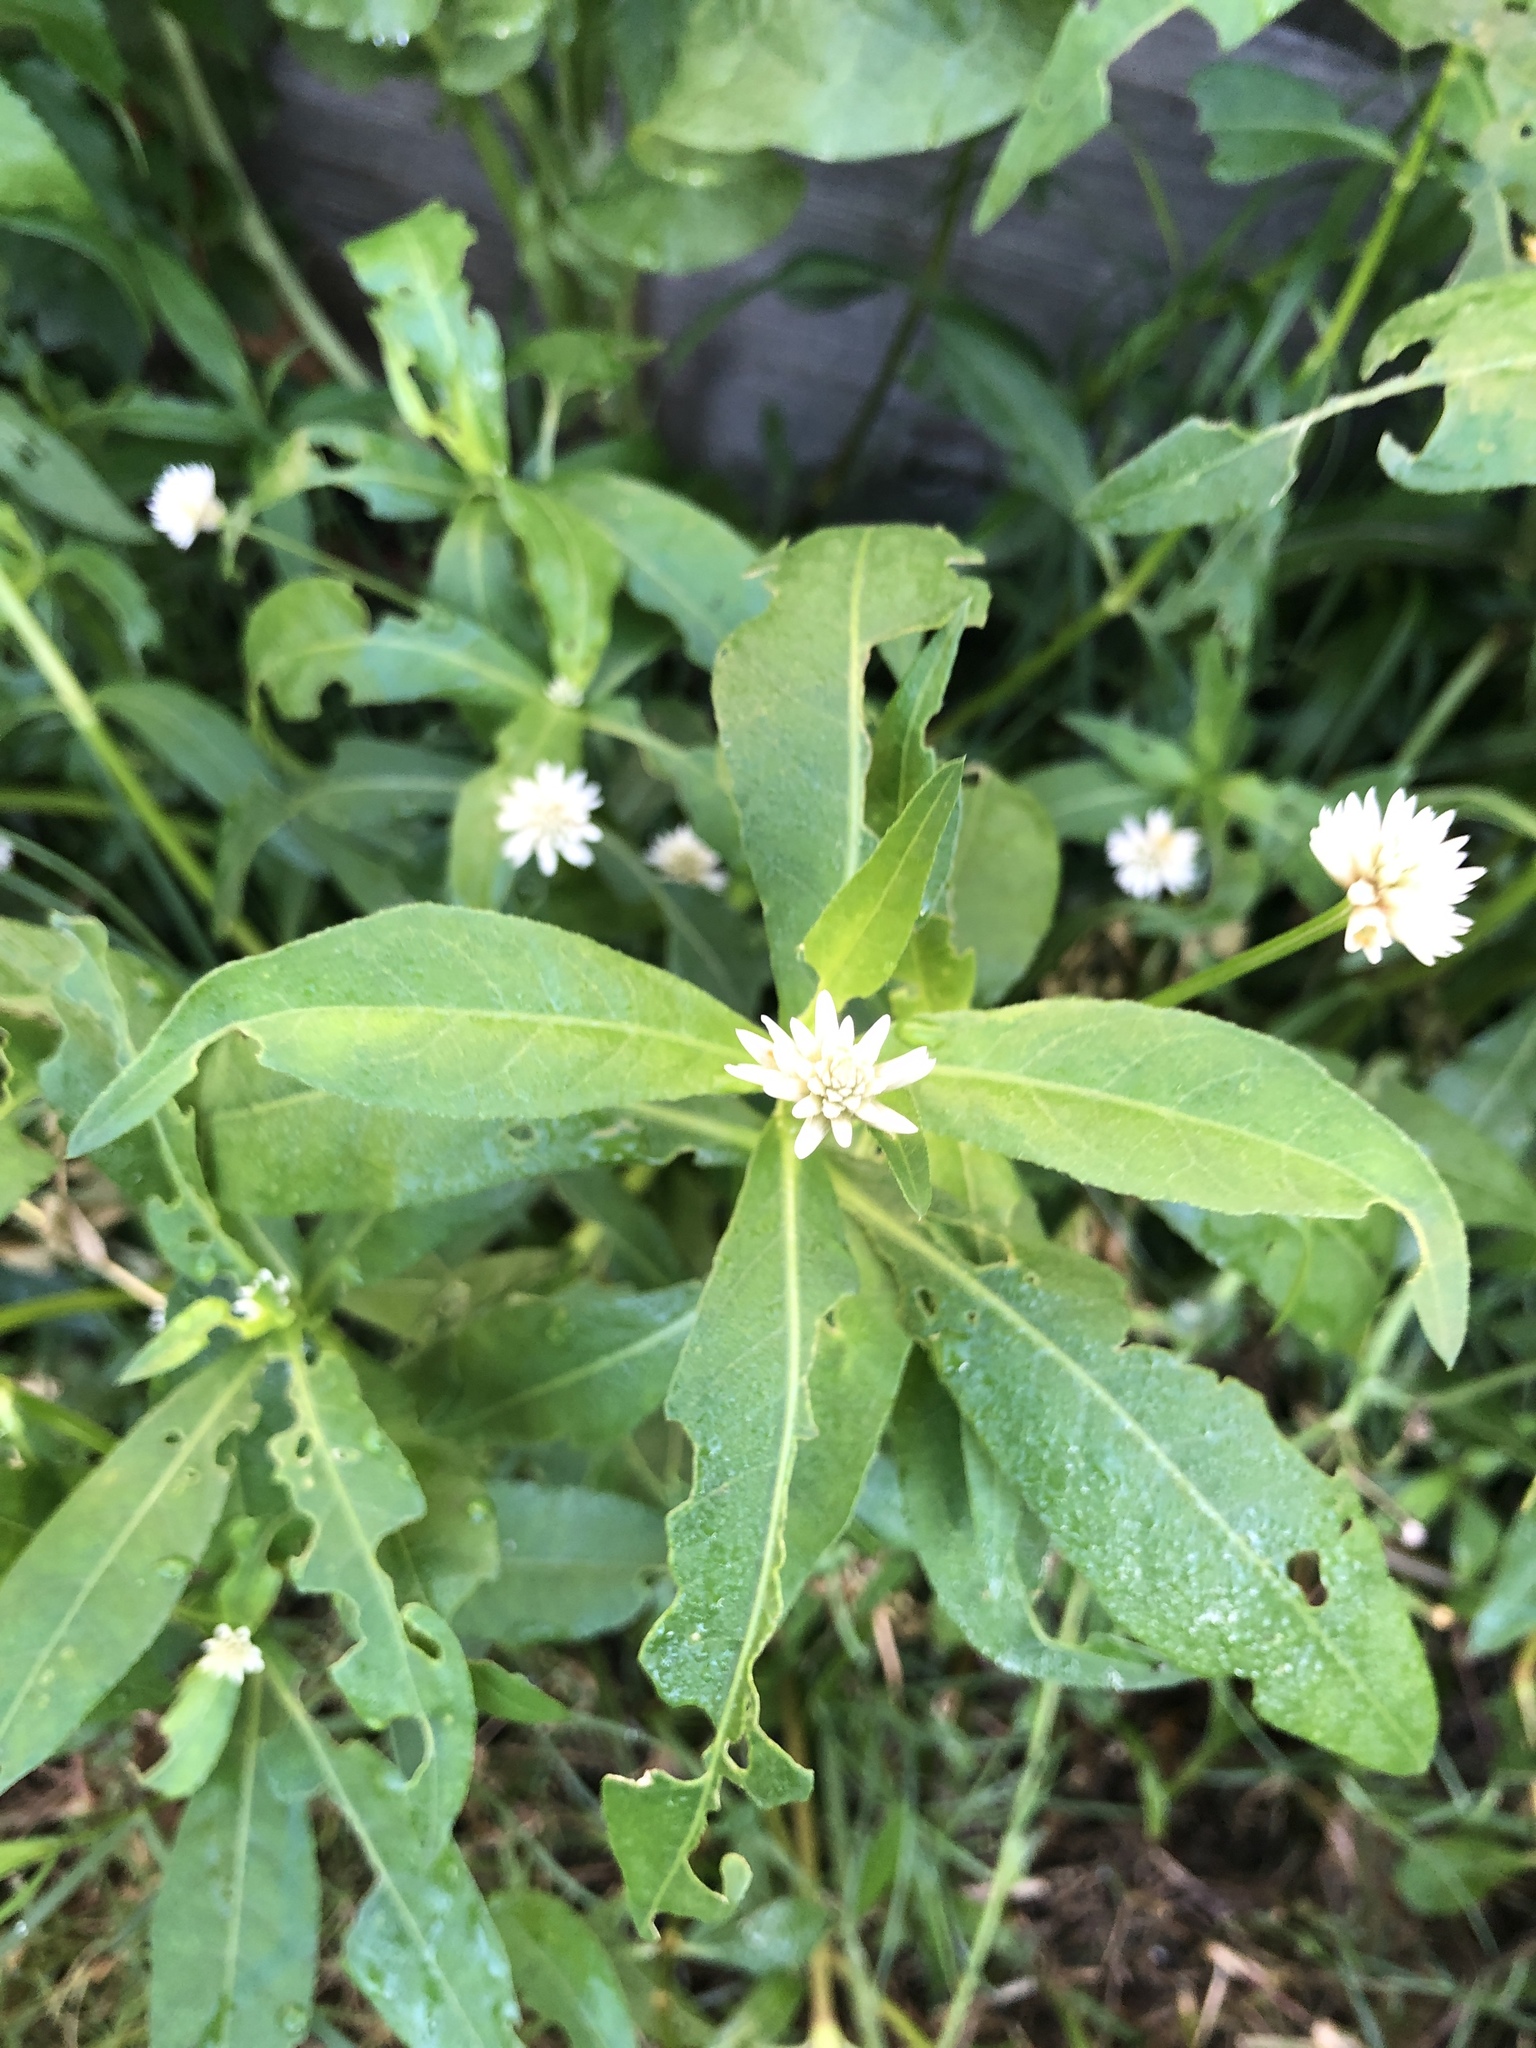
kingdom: Plantae
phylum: Tracheophyta
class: Magnoliopsida
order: Caryophyllales
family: Amaranthaceae
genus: Alternanthera
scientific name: Alternanthera philoxeroides
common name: Alligatorweed
